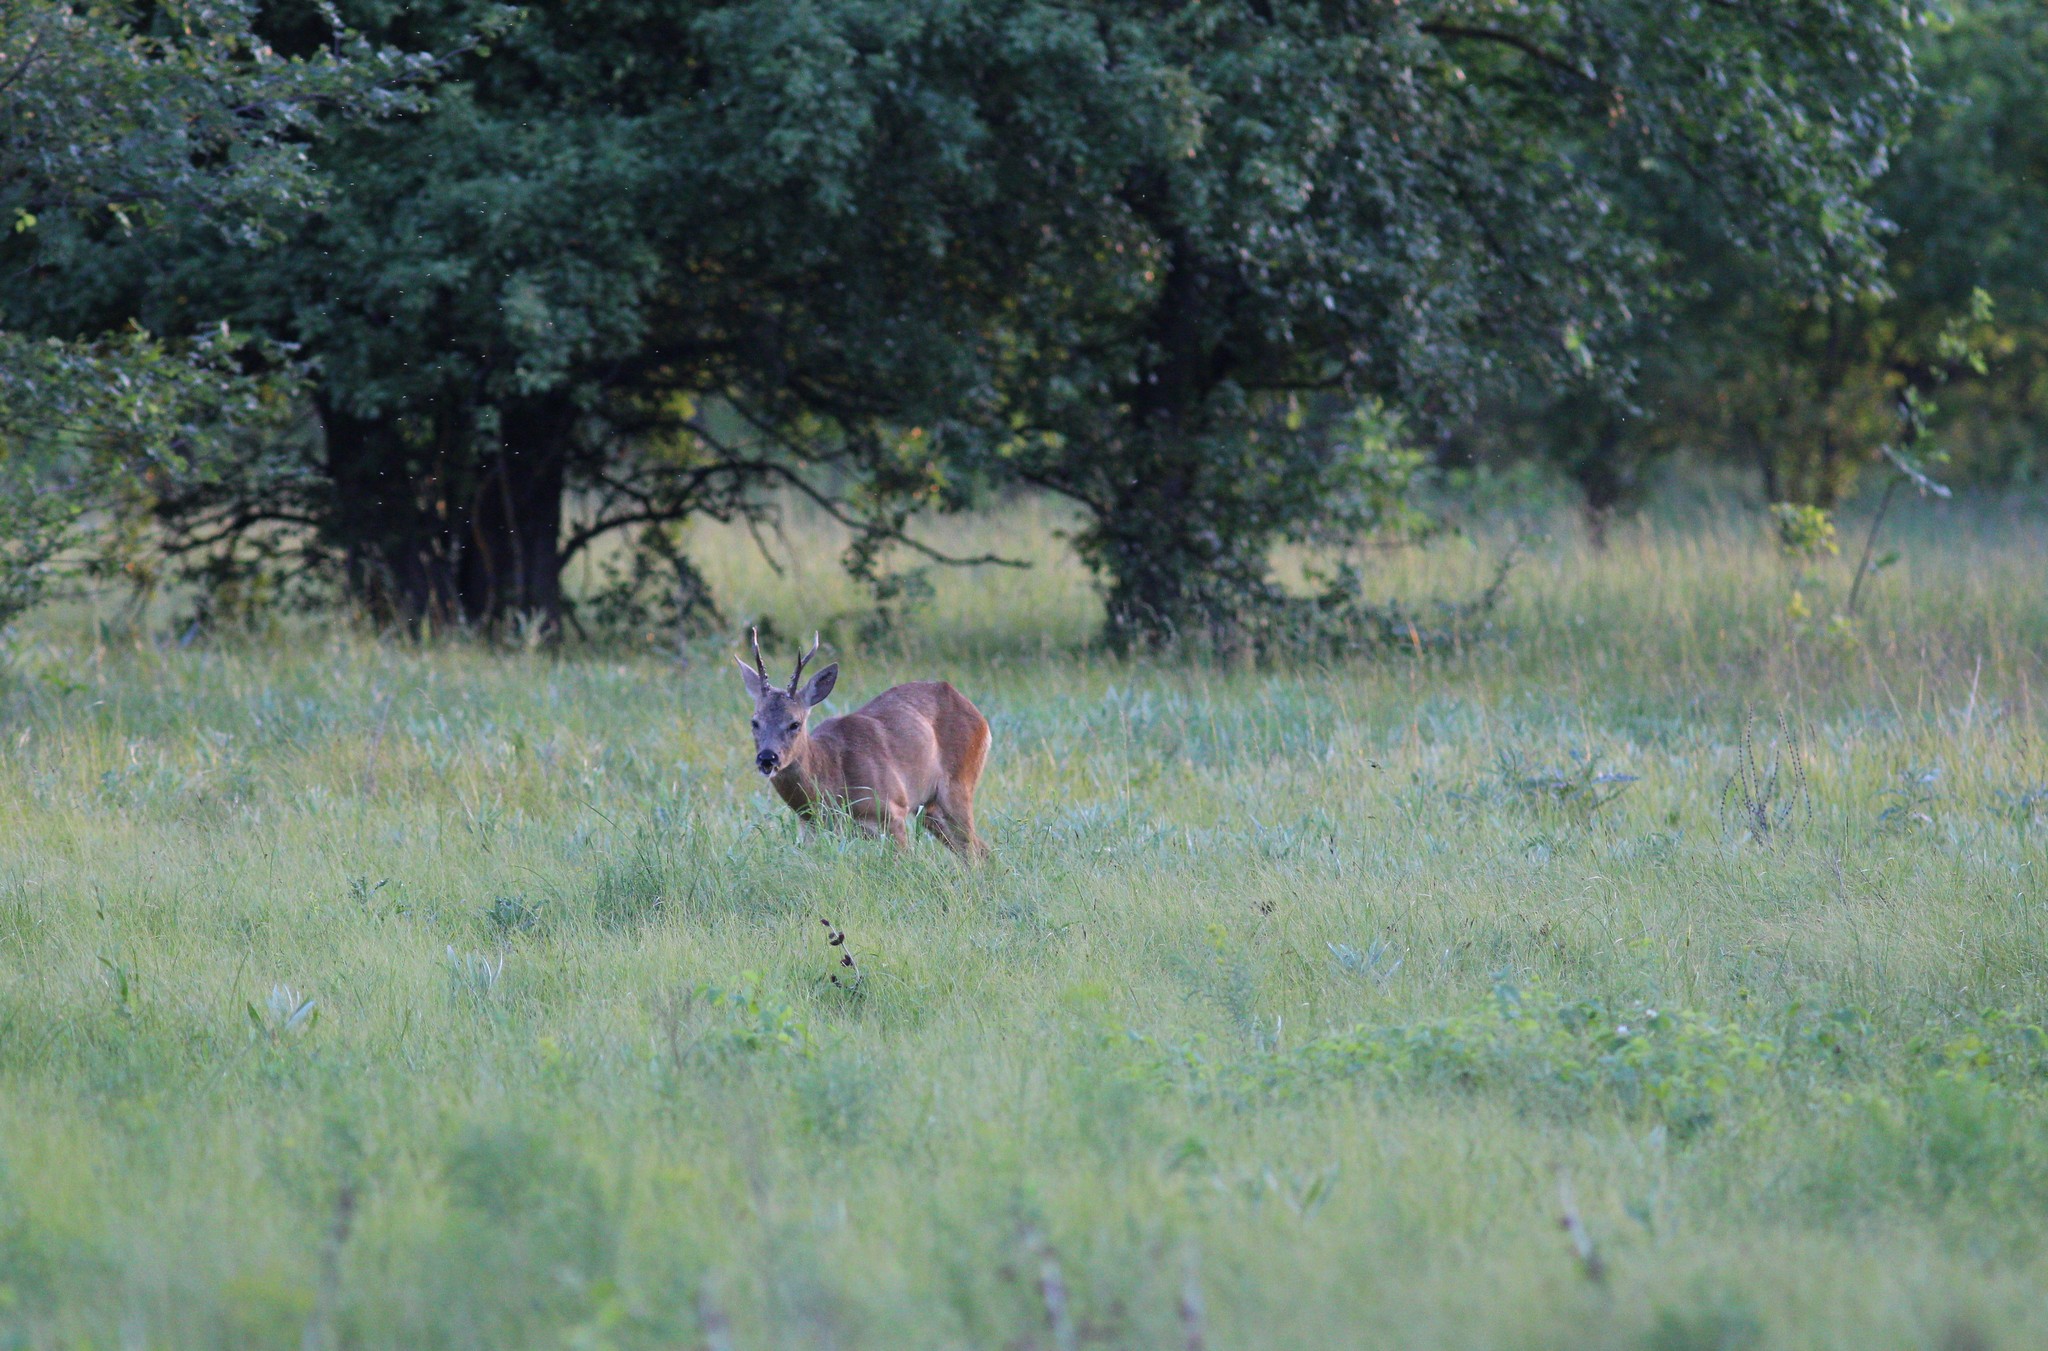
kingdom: Animalia
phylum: Chordata
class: Mammalia
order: Artiodactyla
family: Cervidae
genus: Capreolus
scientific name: Capreolus pygargus
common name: Siberian roe
